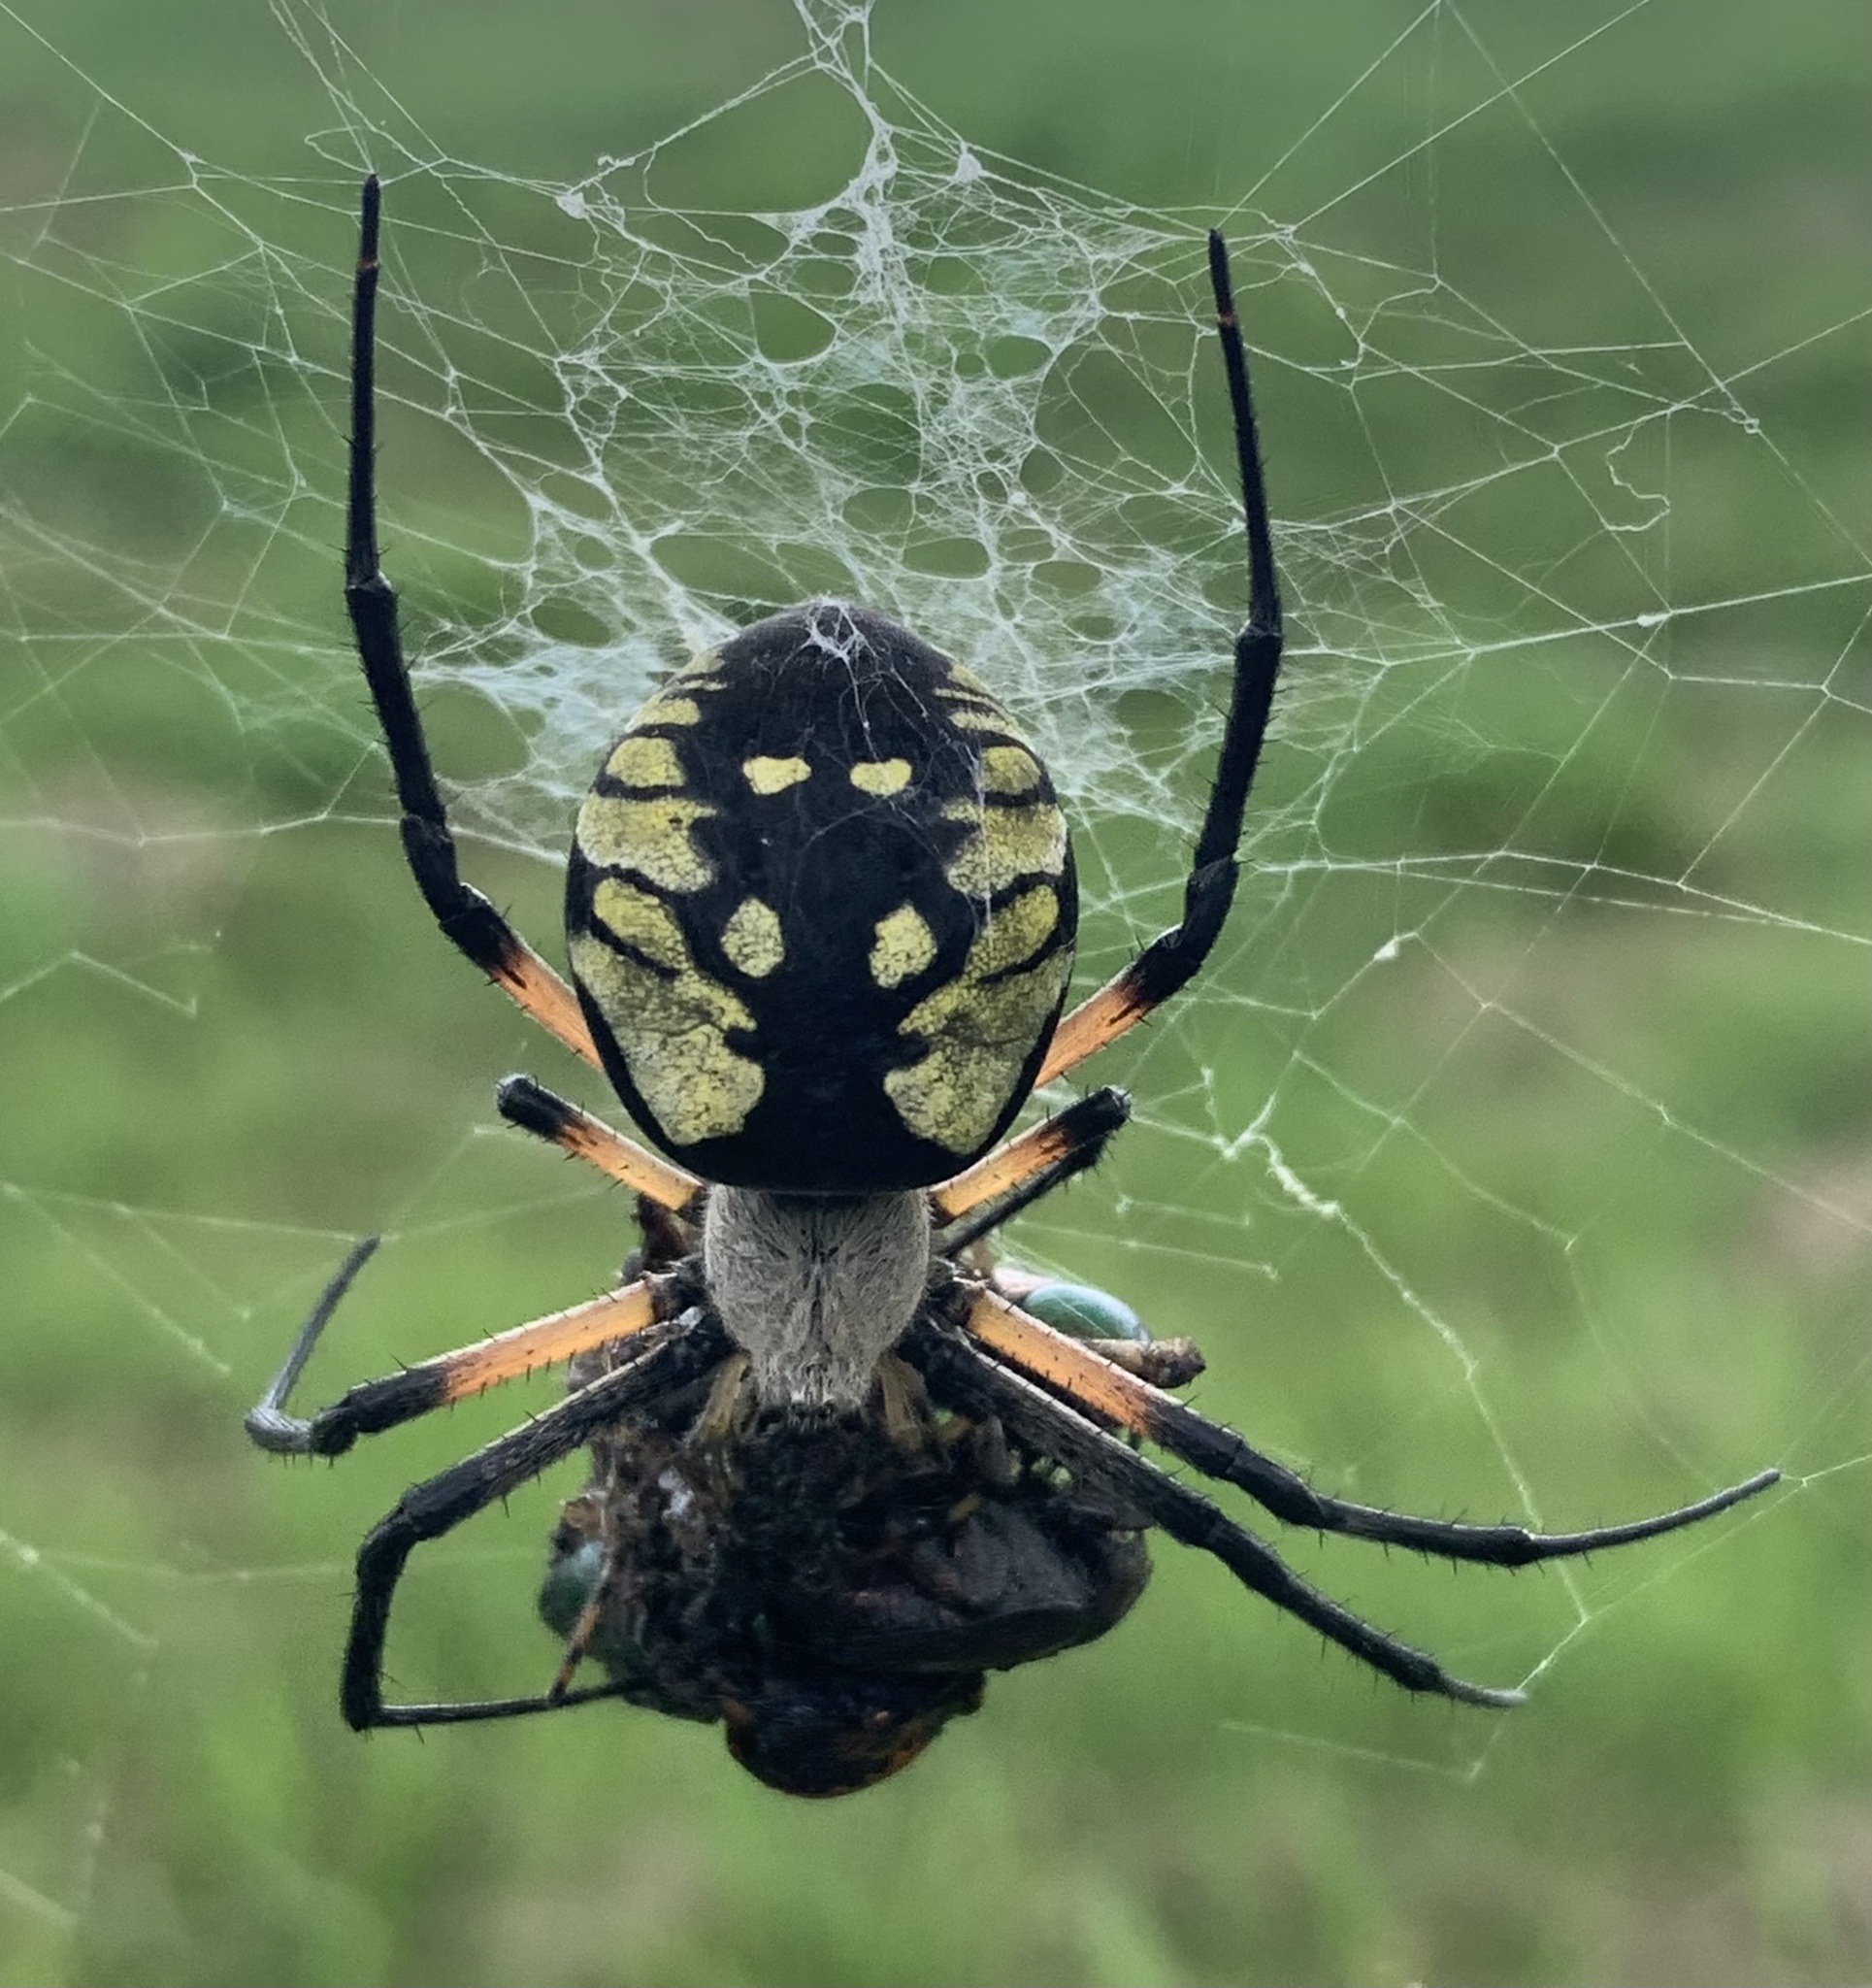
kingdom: Animalia
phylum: Arthropoda
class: Arachnida
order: Araneae
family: Araneidae
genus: Argiope
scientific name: Argiope aurantia
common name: Orb weavers
